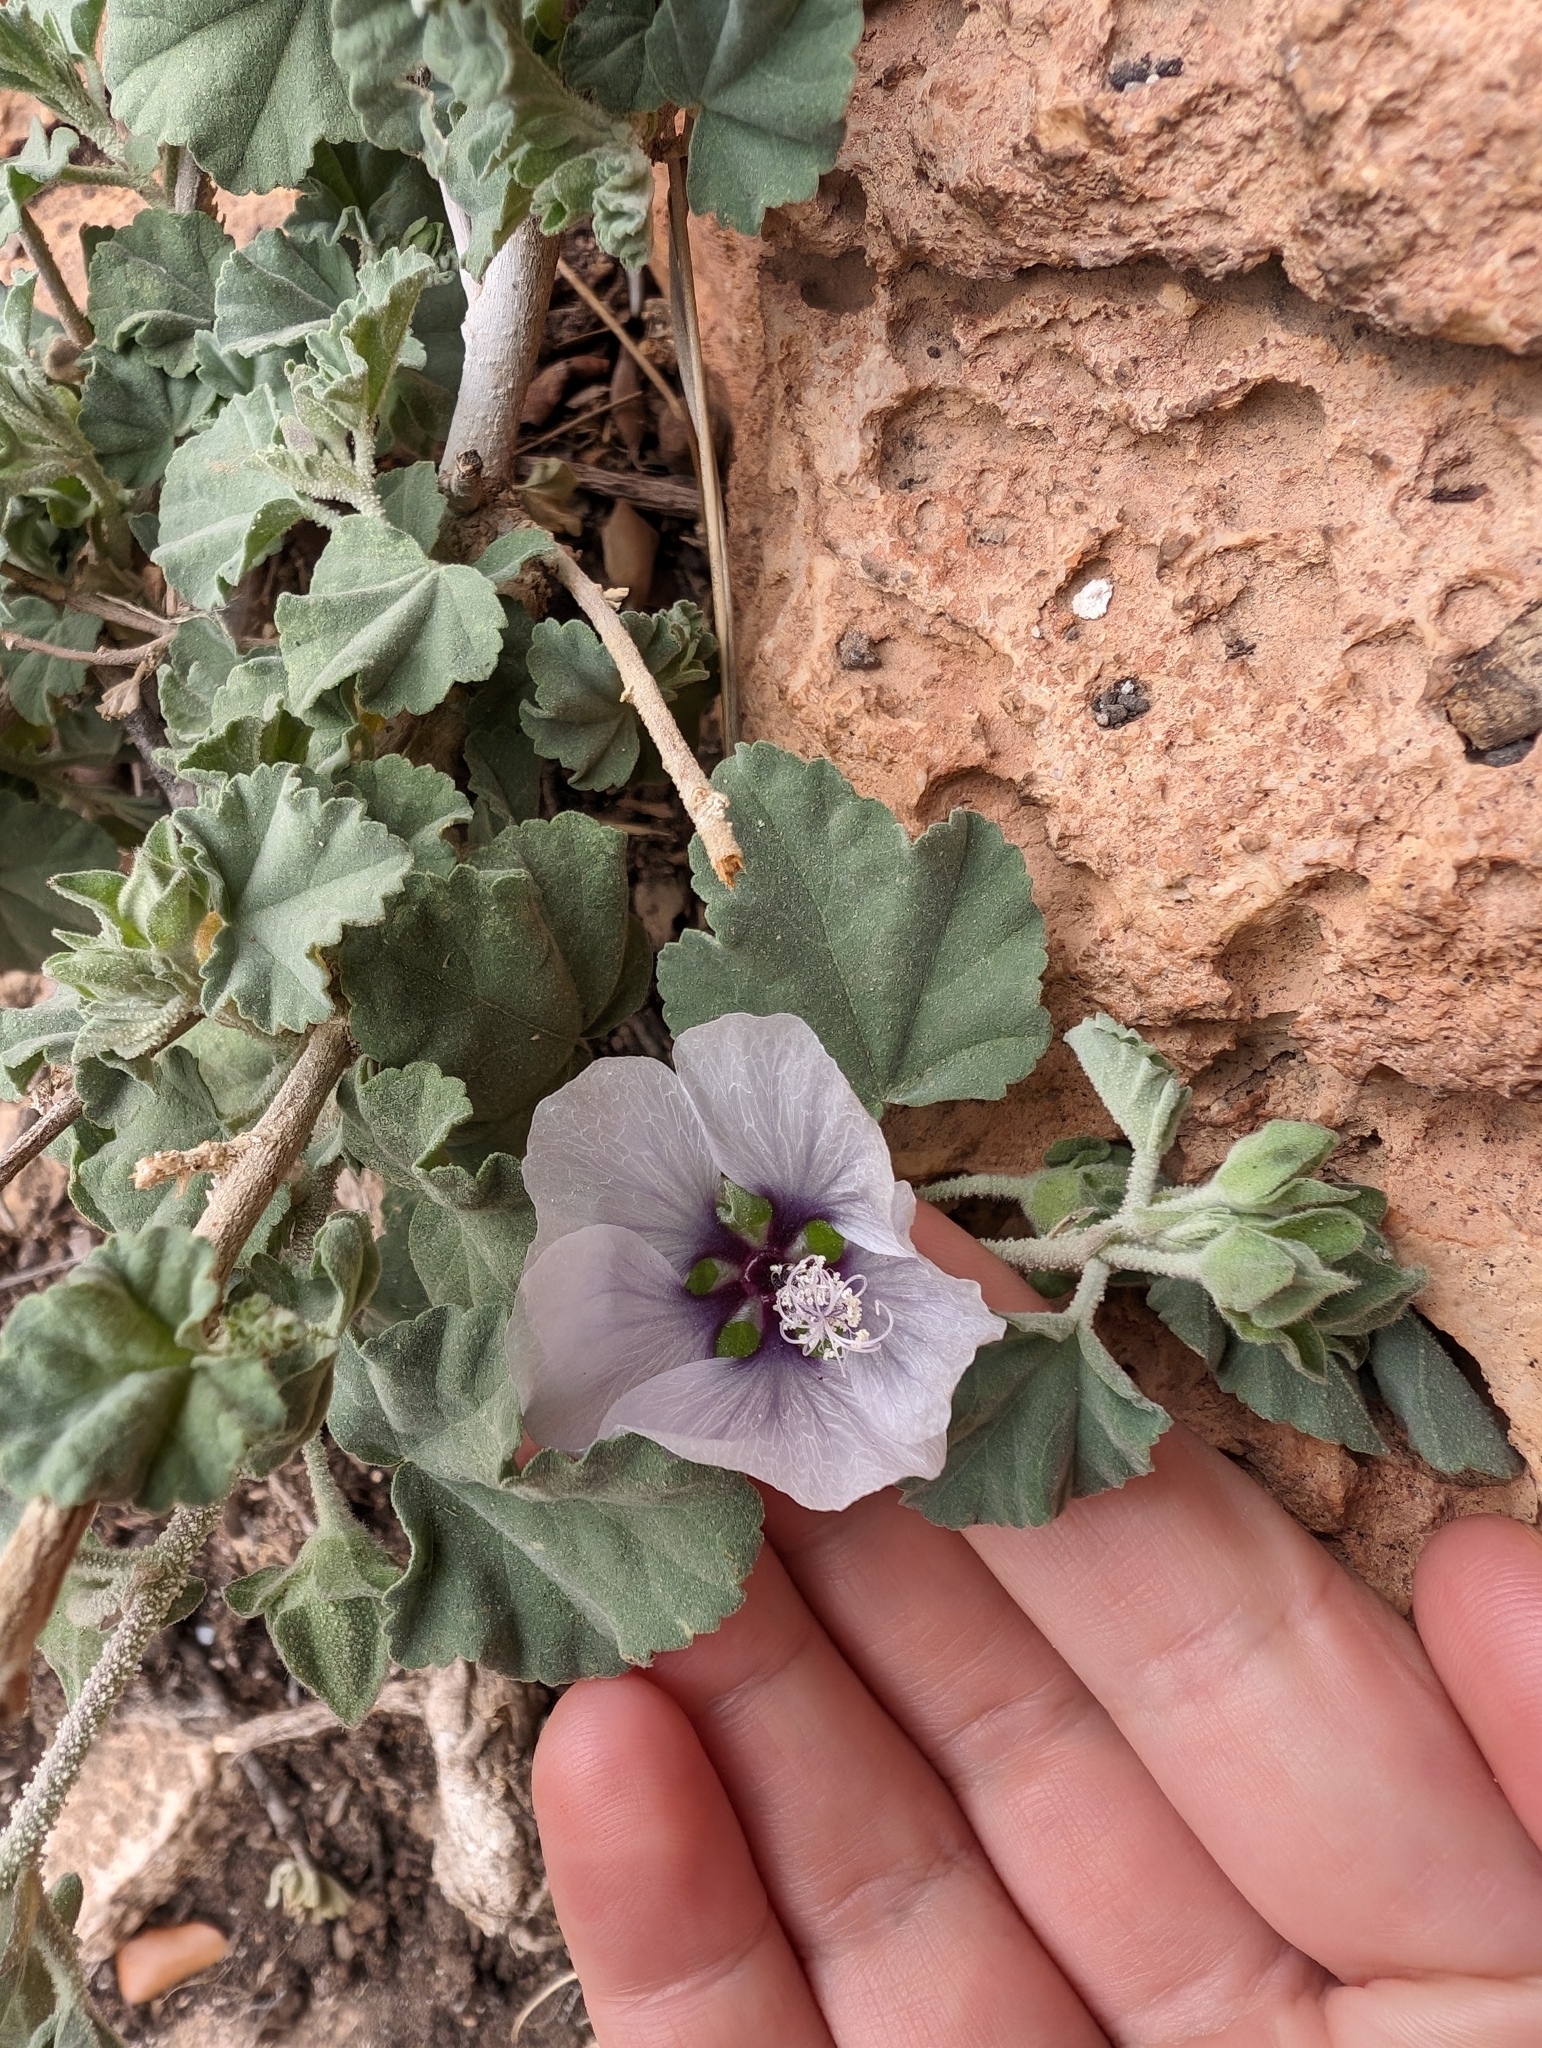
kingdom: Plantae
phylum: Tracheophyta
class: Magnoliopsida
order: Malvales
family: Malvaceae
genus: Malva
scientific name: Malva subovata
